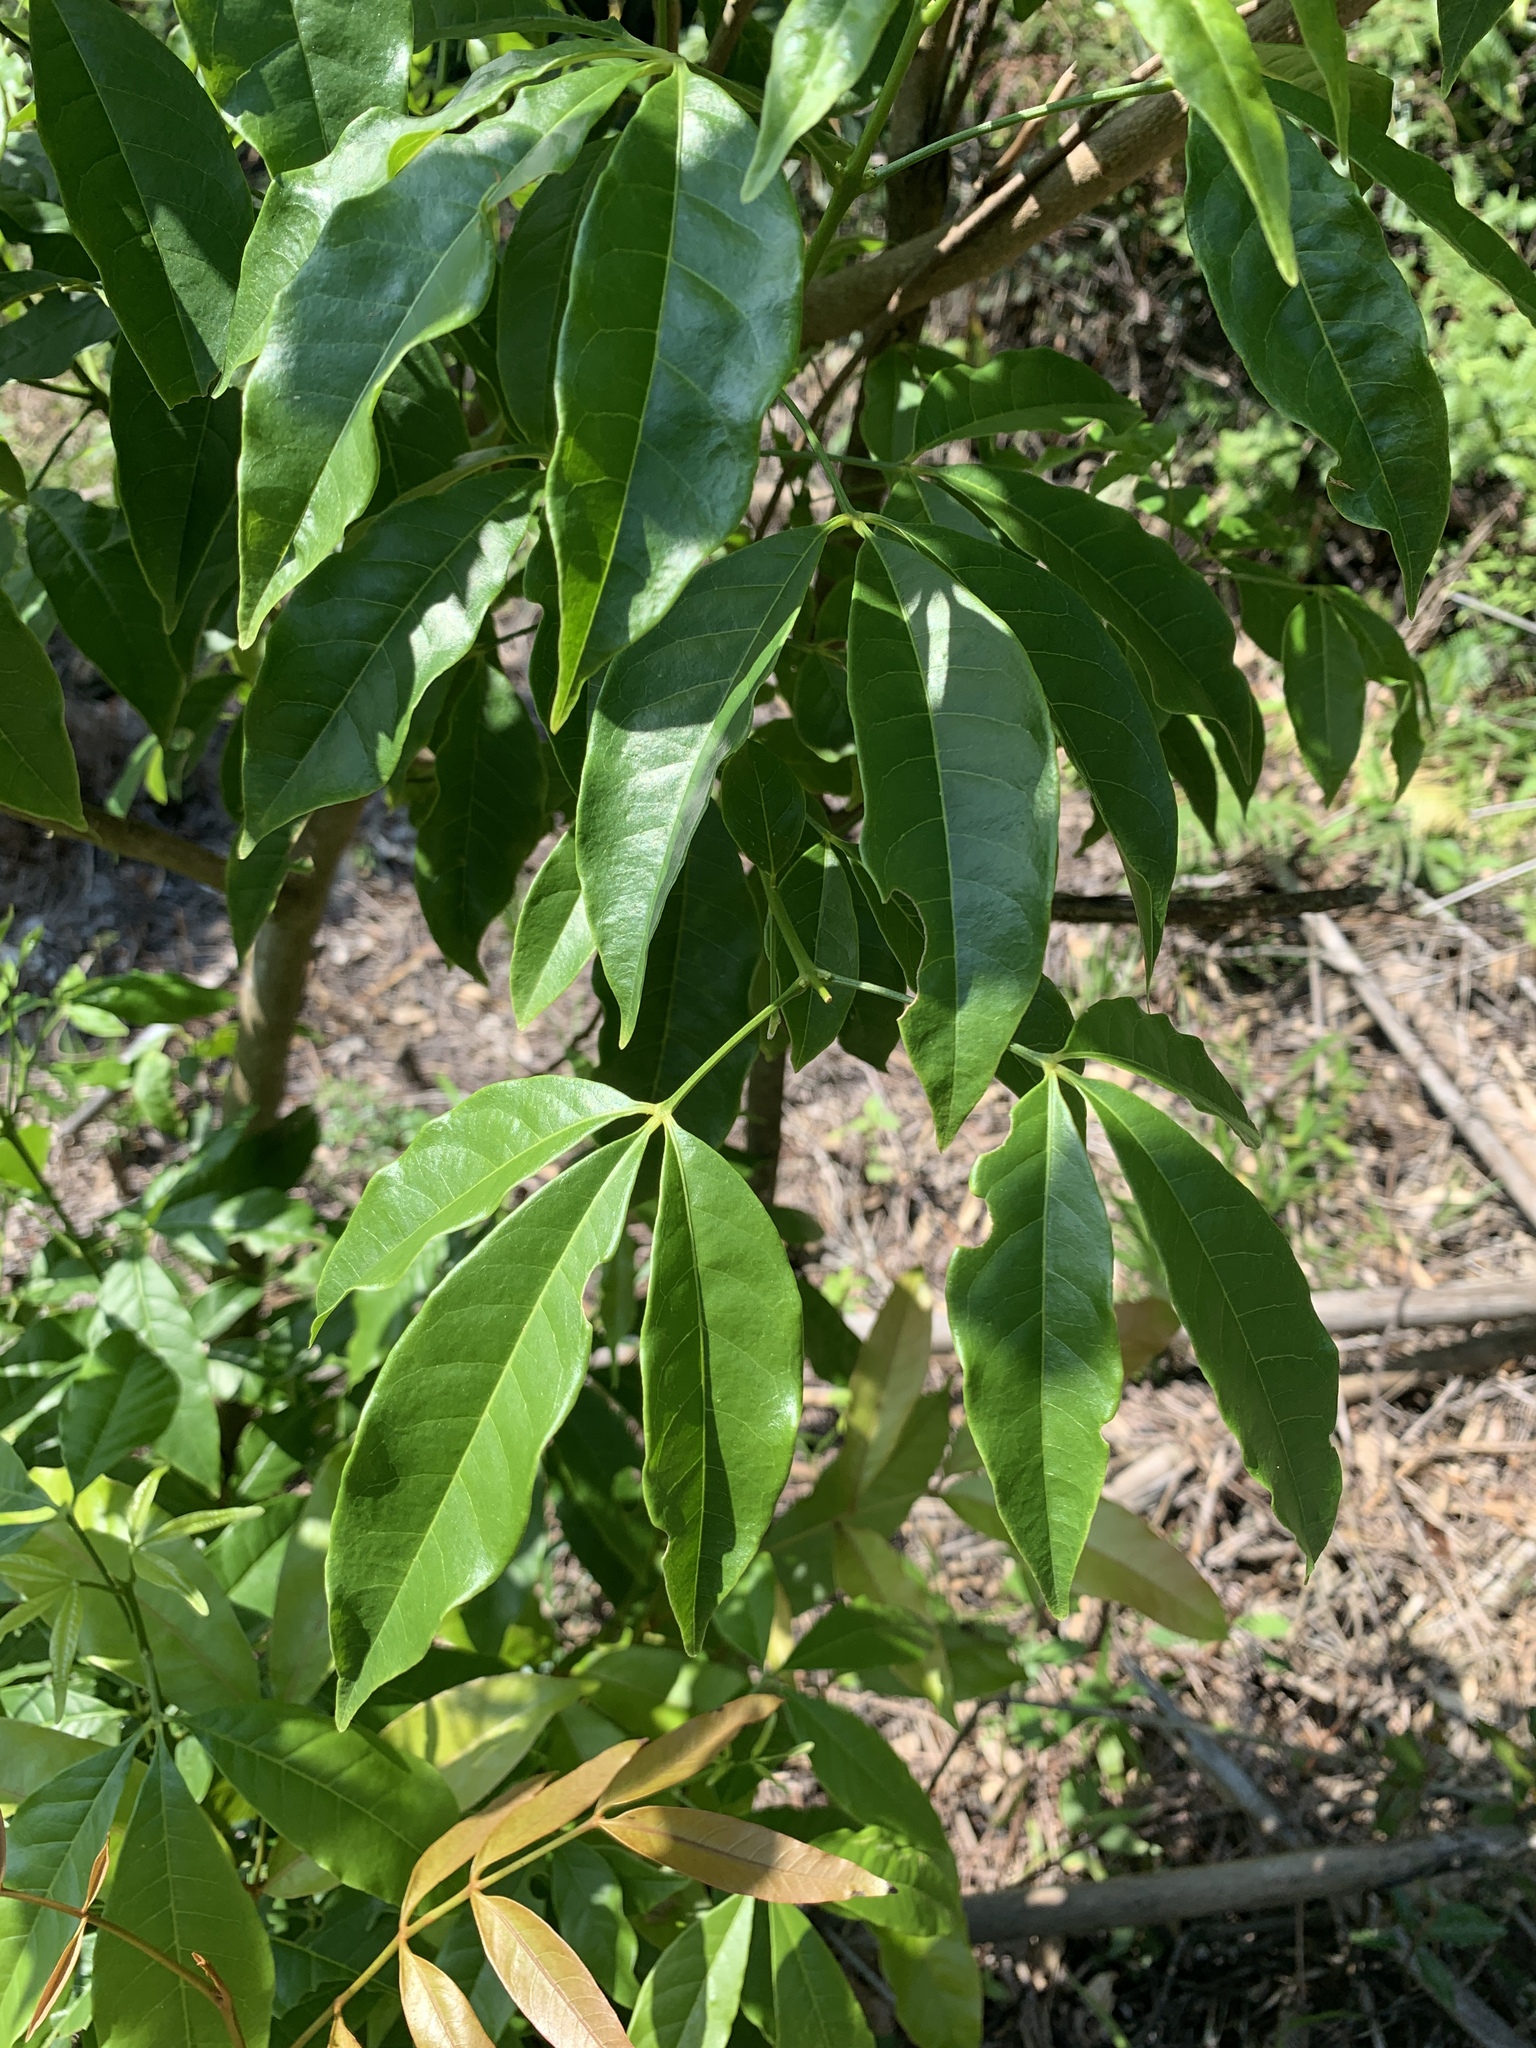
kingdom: Plantae
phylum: Tracheophyta
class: Magnoliopsida
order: Sapindales
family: Rutaceae
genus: Melicope
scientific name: Melicope pteleifolia
